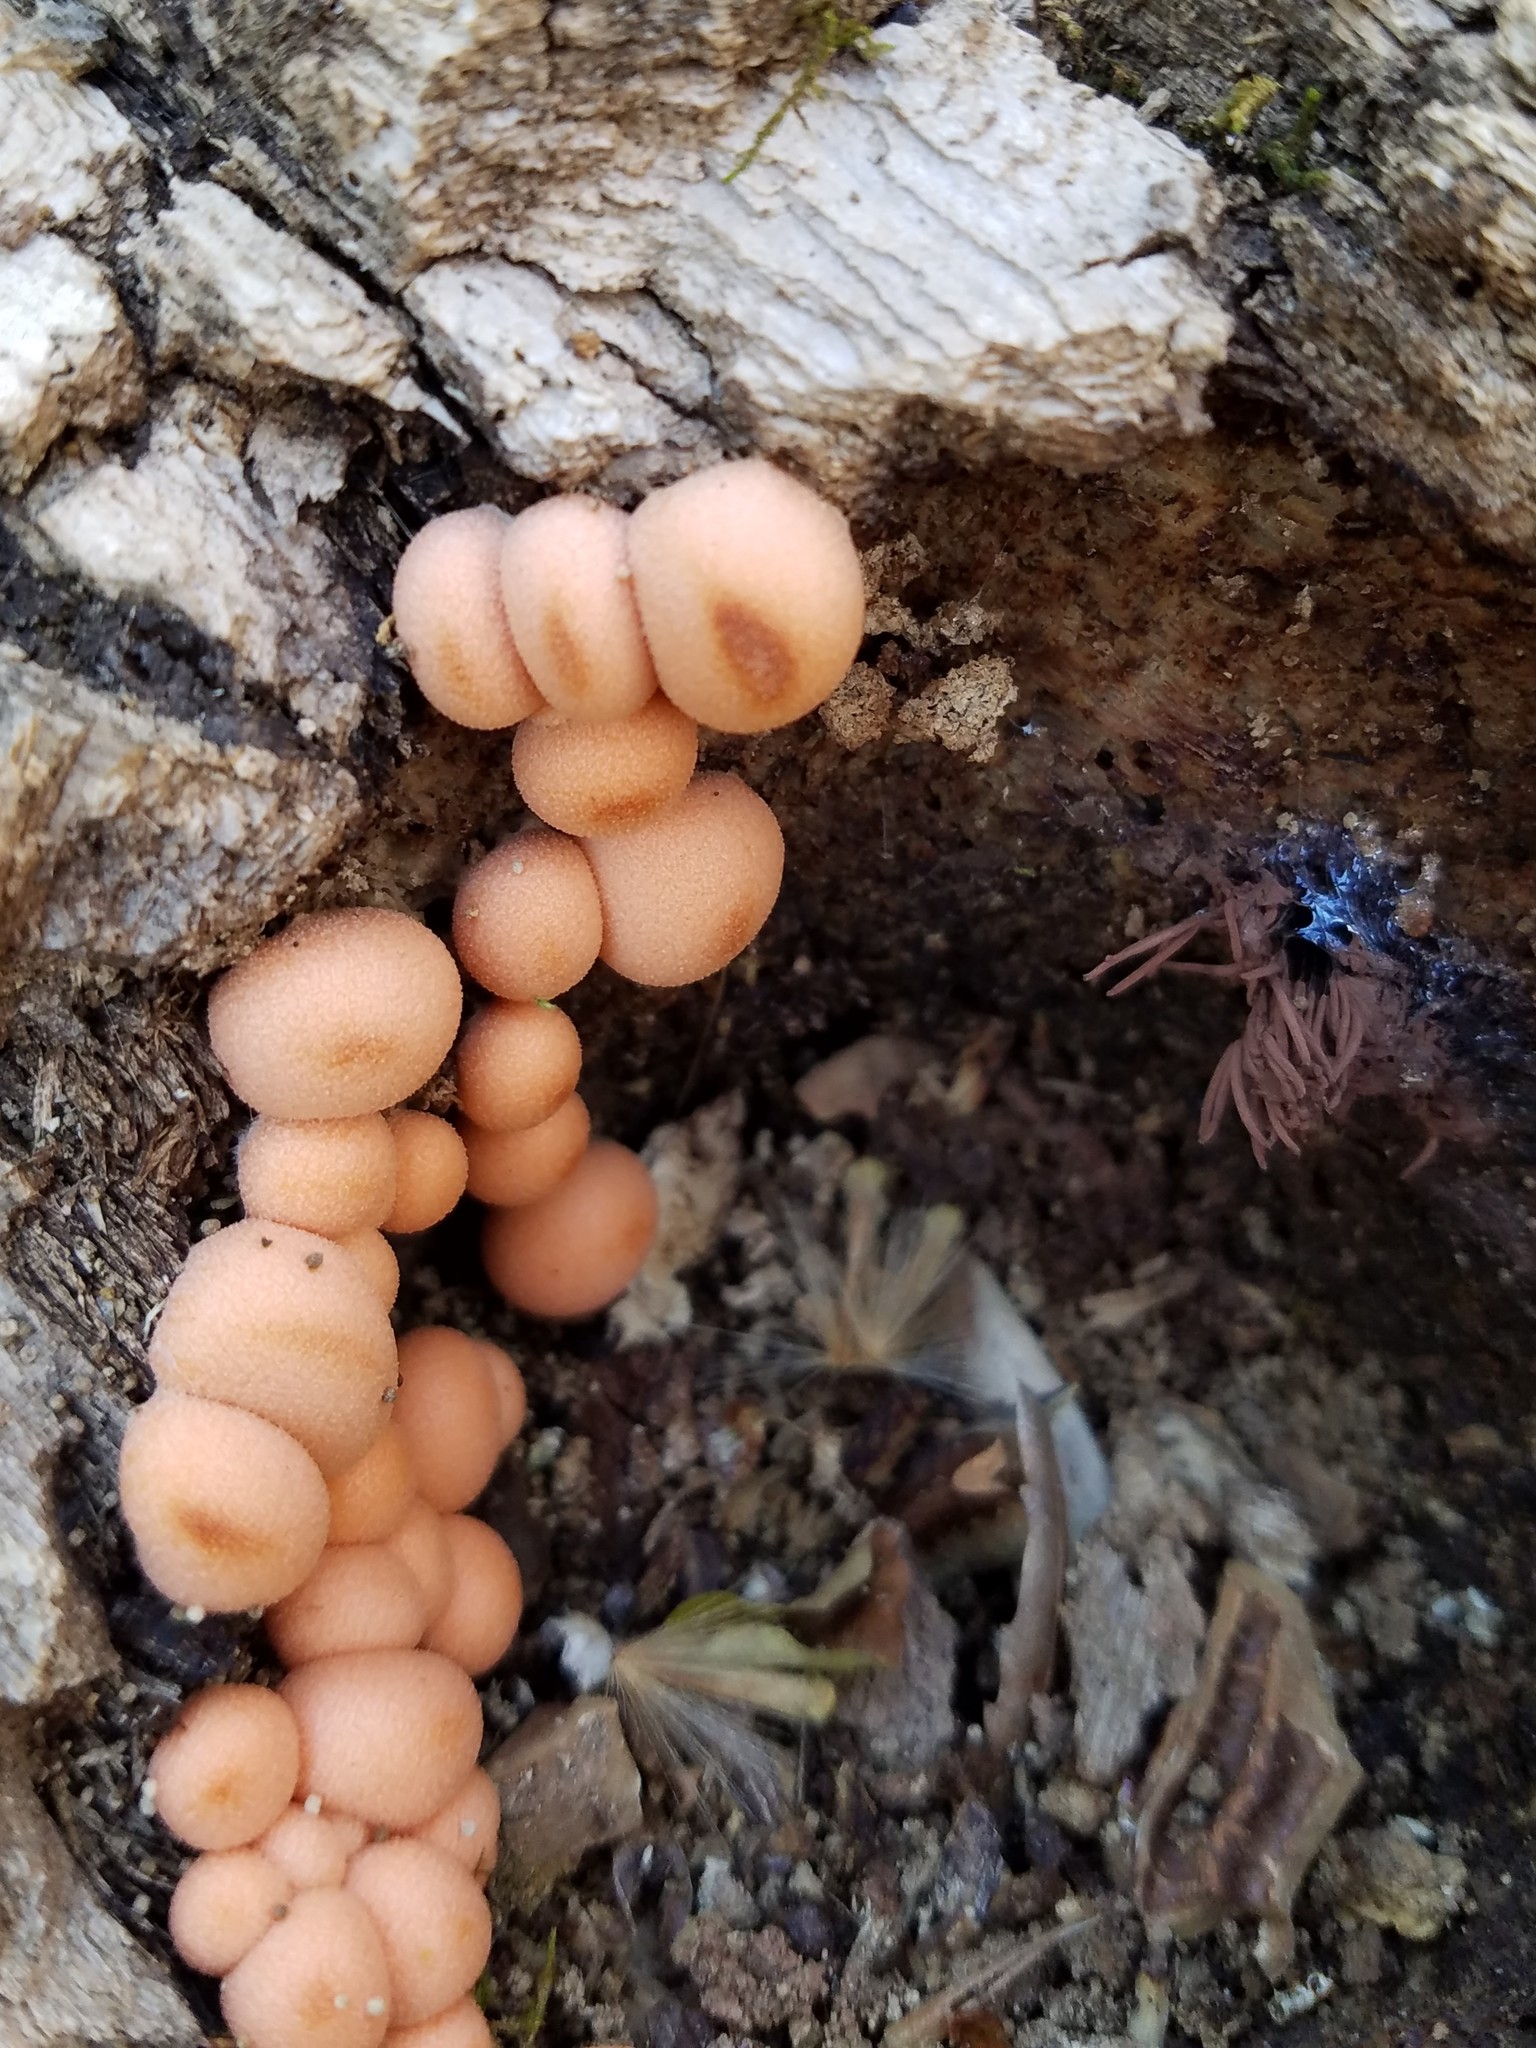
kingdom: Protozoa
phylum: Mycetozoa
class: Myxomycetes
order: Cribrariales
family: Tubiferaceae
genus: Lycogala
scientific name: Lycogala epidendrum
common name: Wolf's milk
